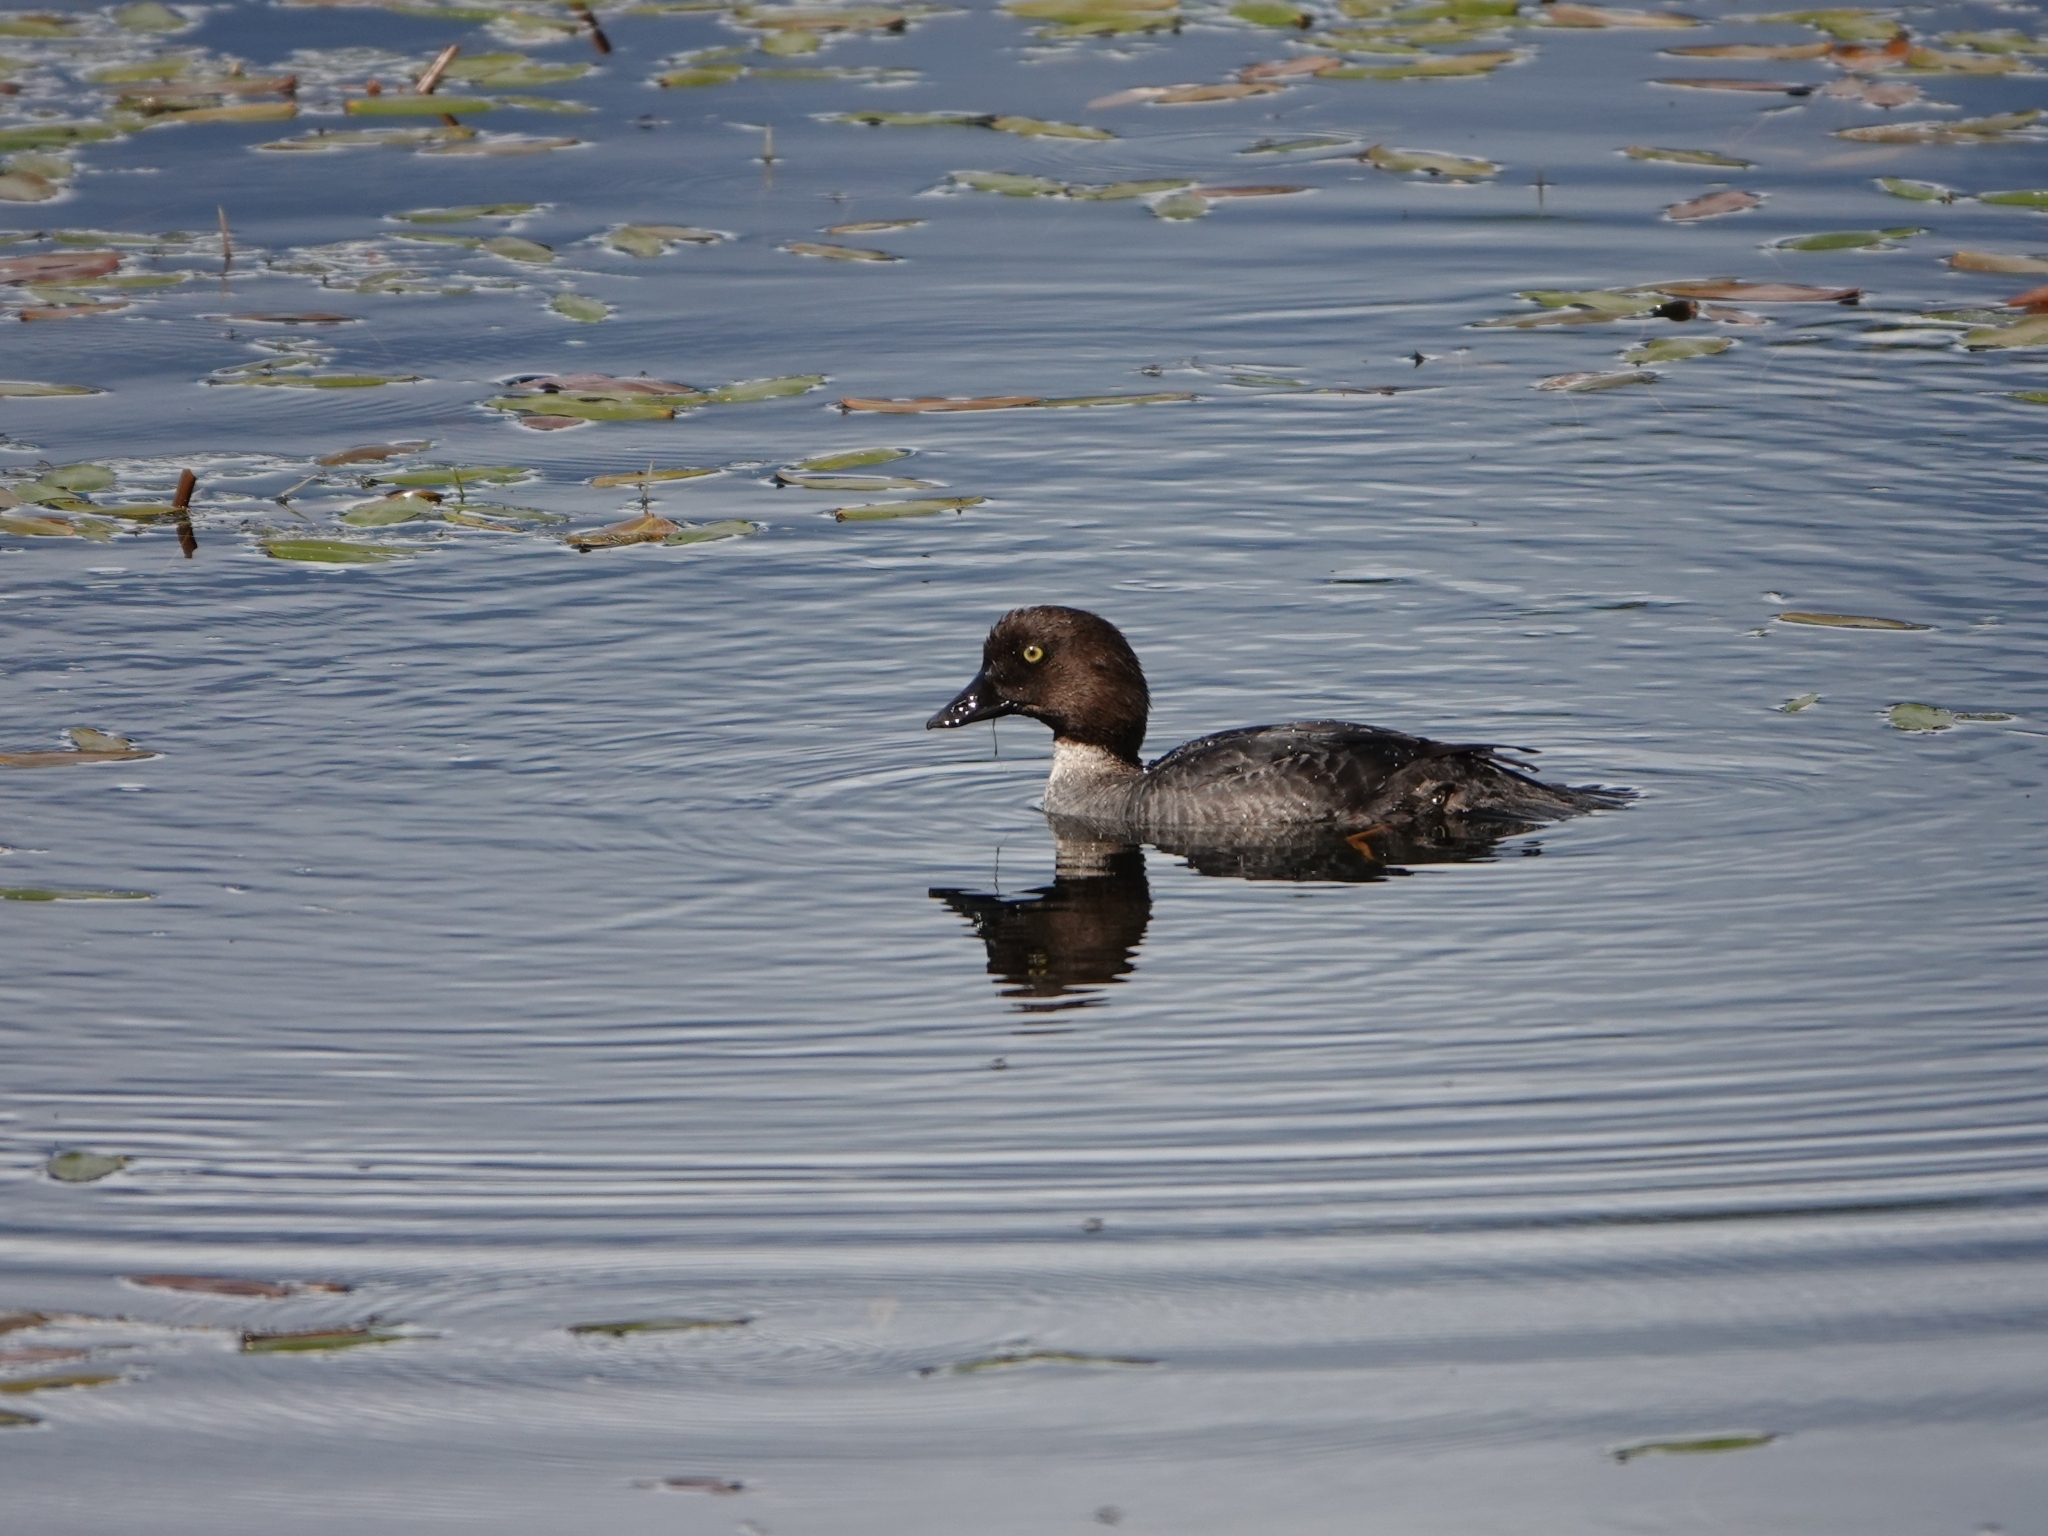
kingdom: Animalia
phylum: Chordata
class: Aves
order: Anseriformes
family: Anatidae
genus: Bucephala
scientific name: Bucephala clangula
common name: Common goldeneye
